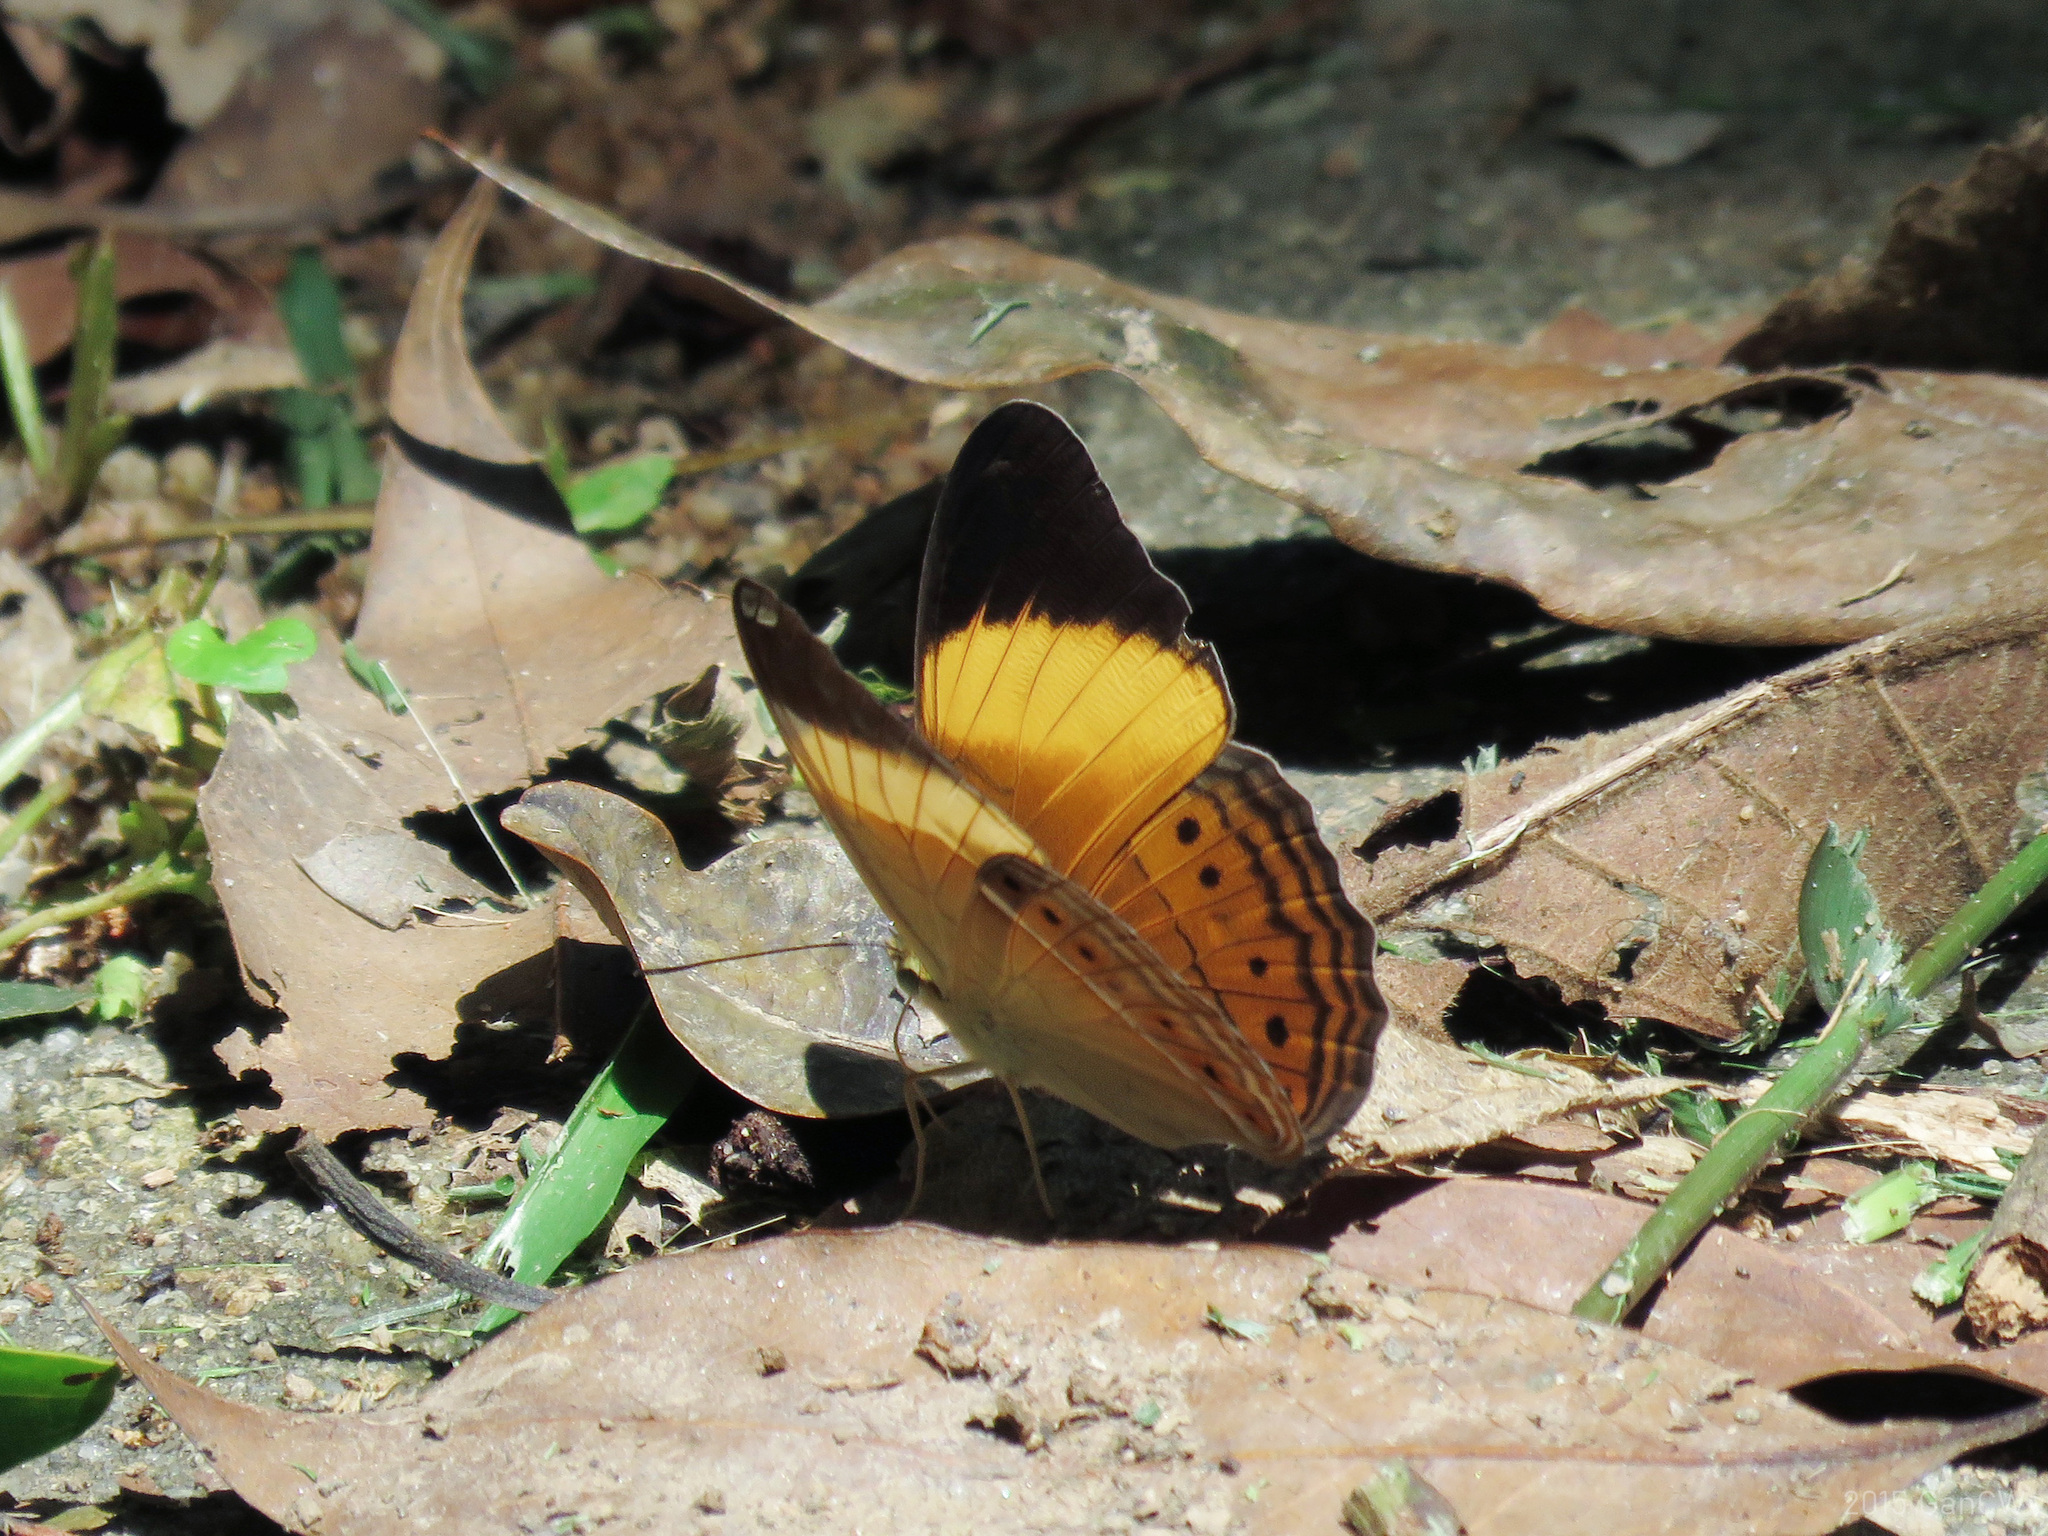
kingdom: Animalia
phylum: Arthropoda
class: Insecta
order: Lepidoptera
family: Nymphalidae
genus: Cirrochroa
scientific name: Cirrochroa orissa
